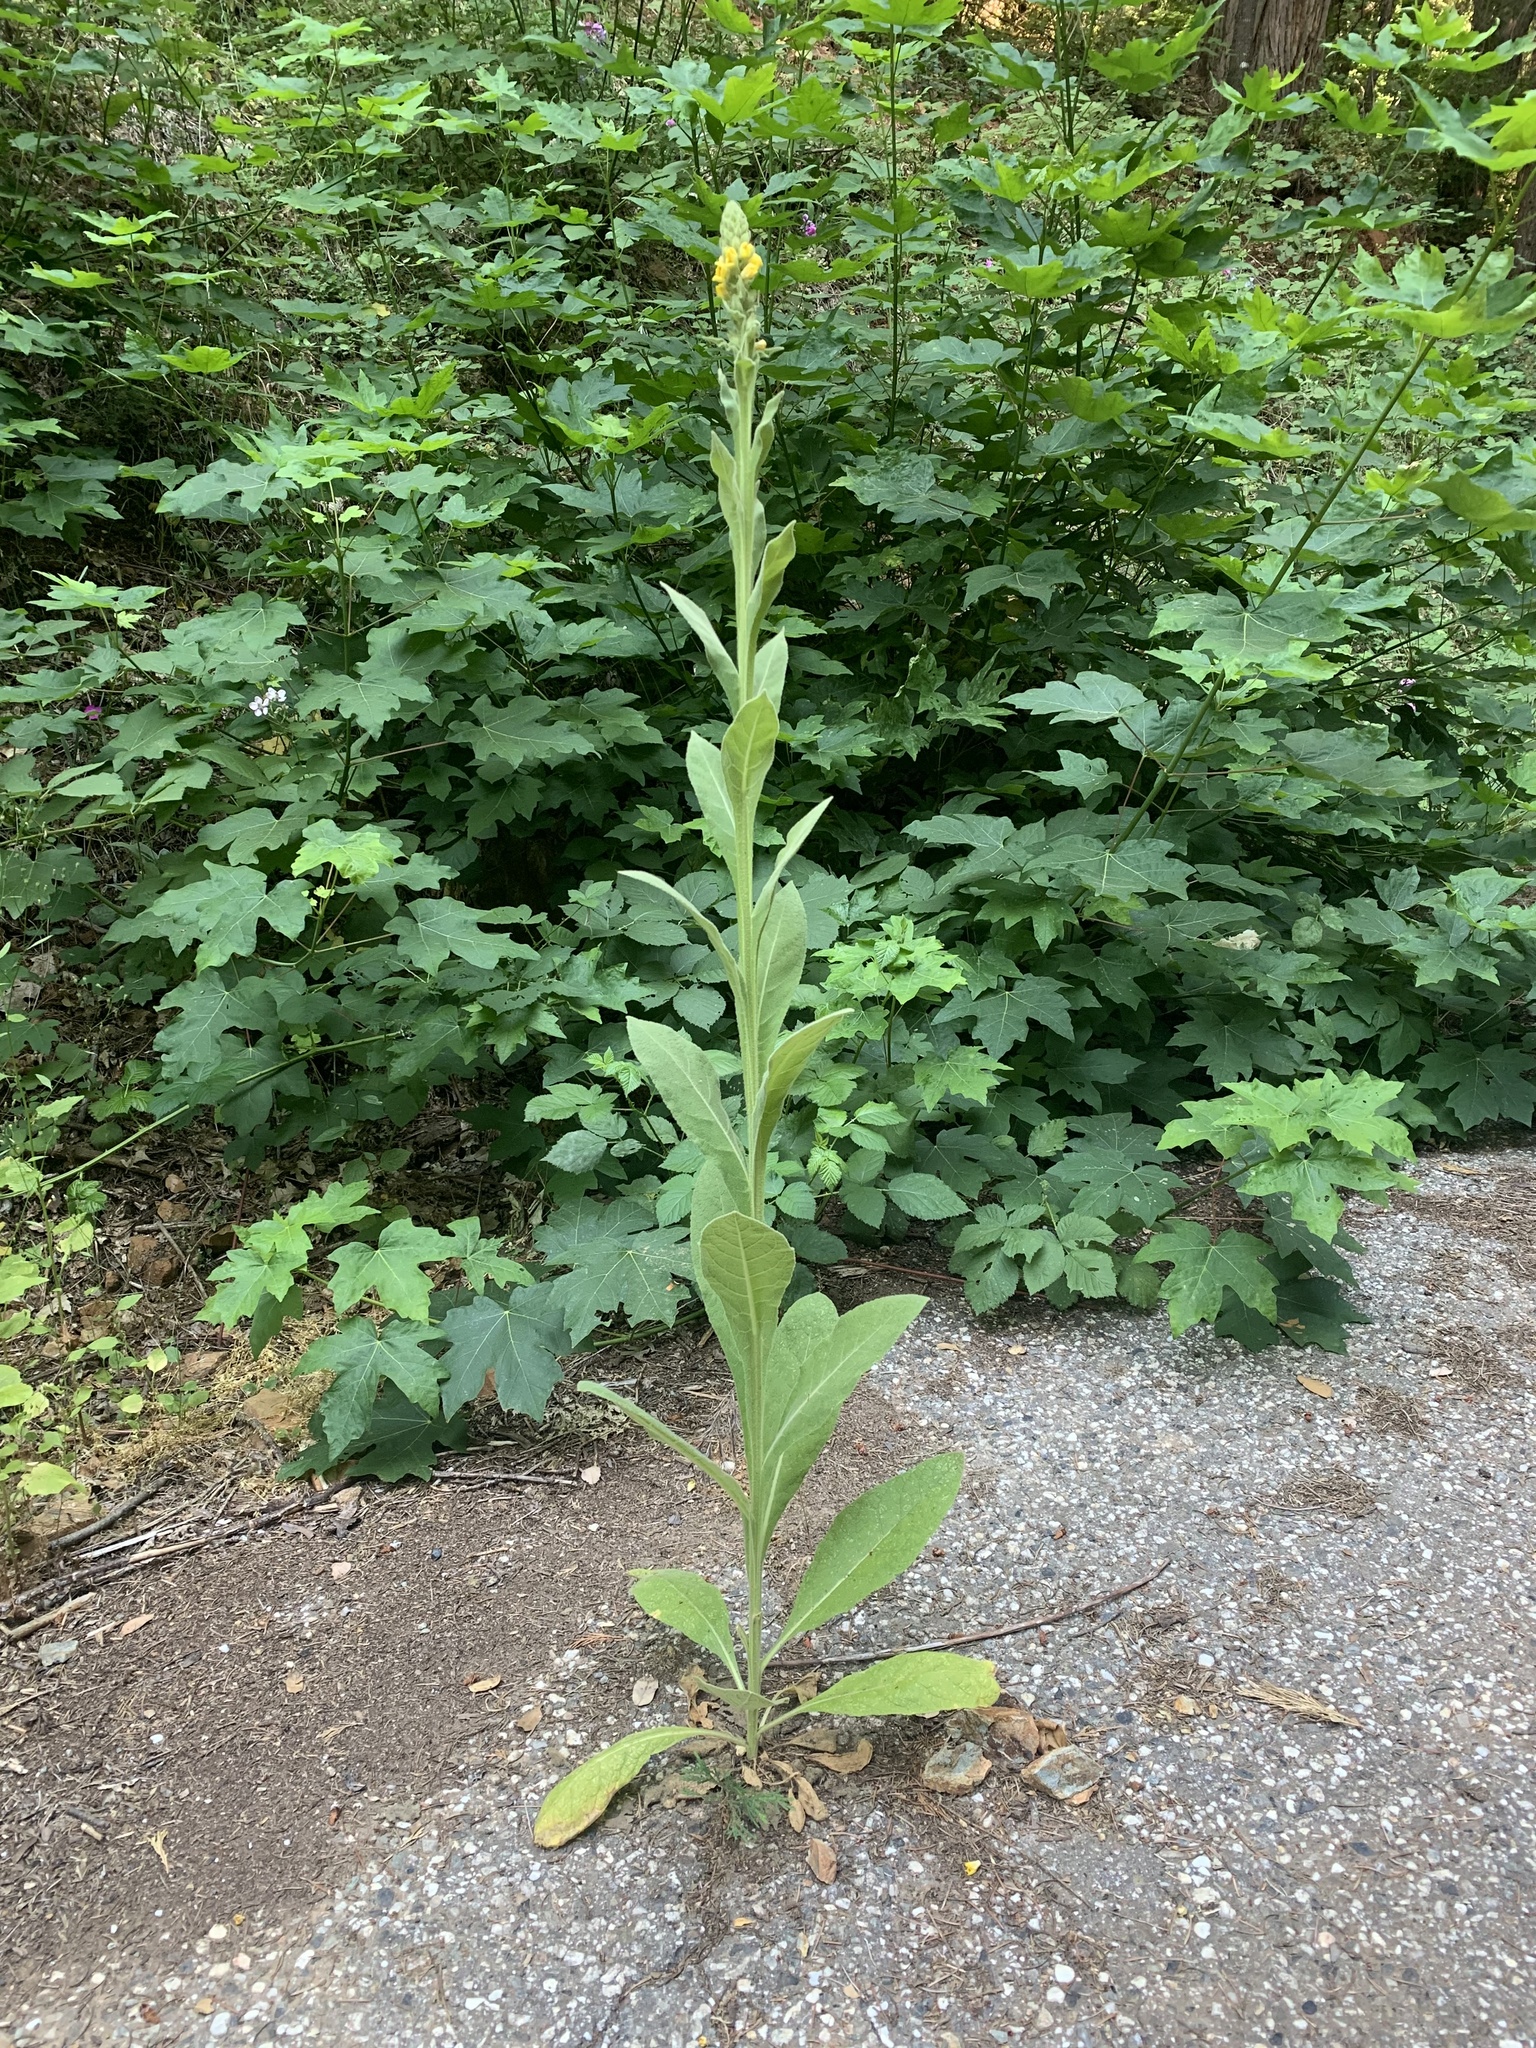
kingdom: Plantae
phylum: Tracheophyta
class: Magnoliopsida
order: Lamiales
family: Scrophulariaceae
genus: Verbascum
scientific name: Verbascum thapsus
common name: Common mullein
